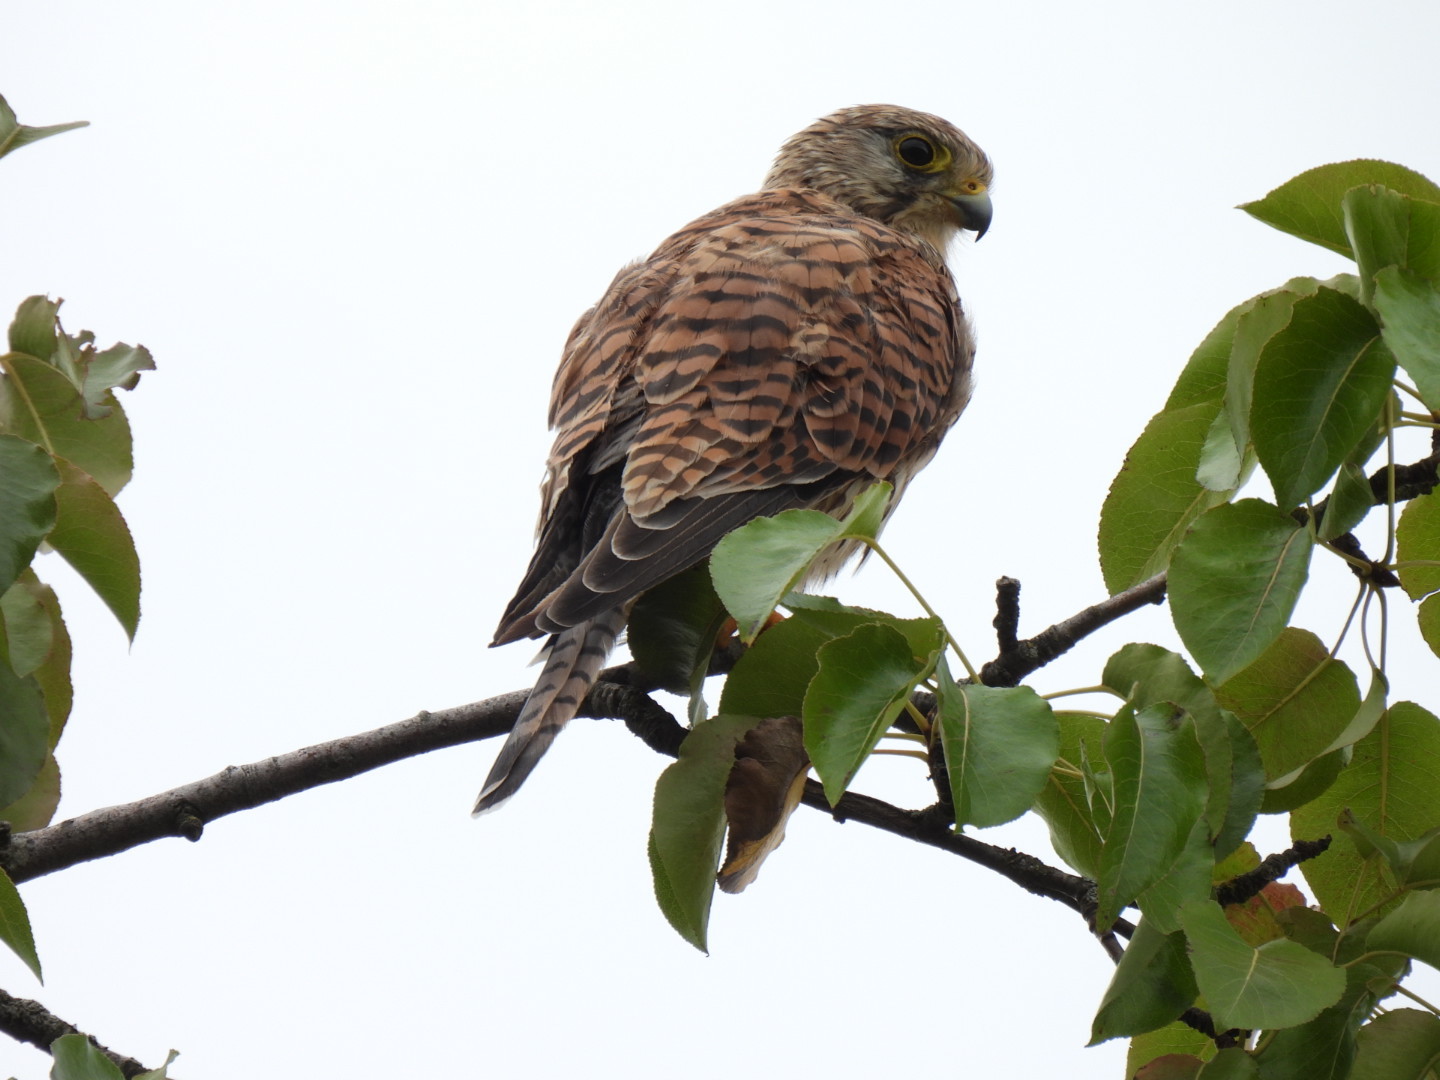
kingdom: Animalia
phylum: Chordata
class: Aves
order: Falconiformes
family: Falconidae
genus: Falco
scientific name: Falco tinnunculus
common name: Common kestrel
